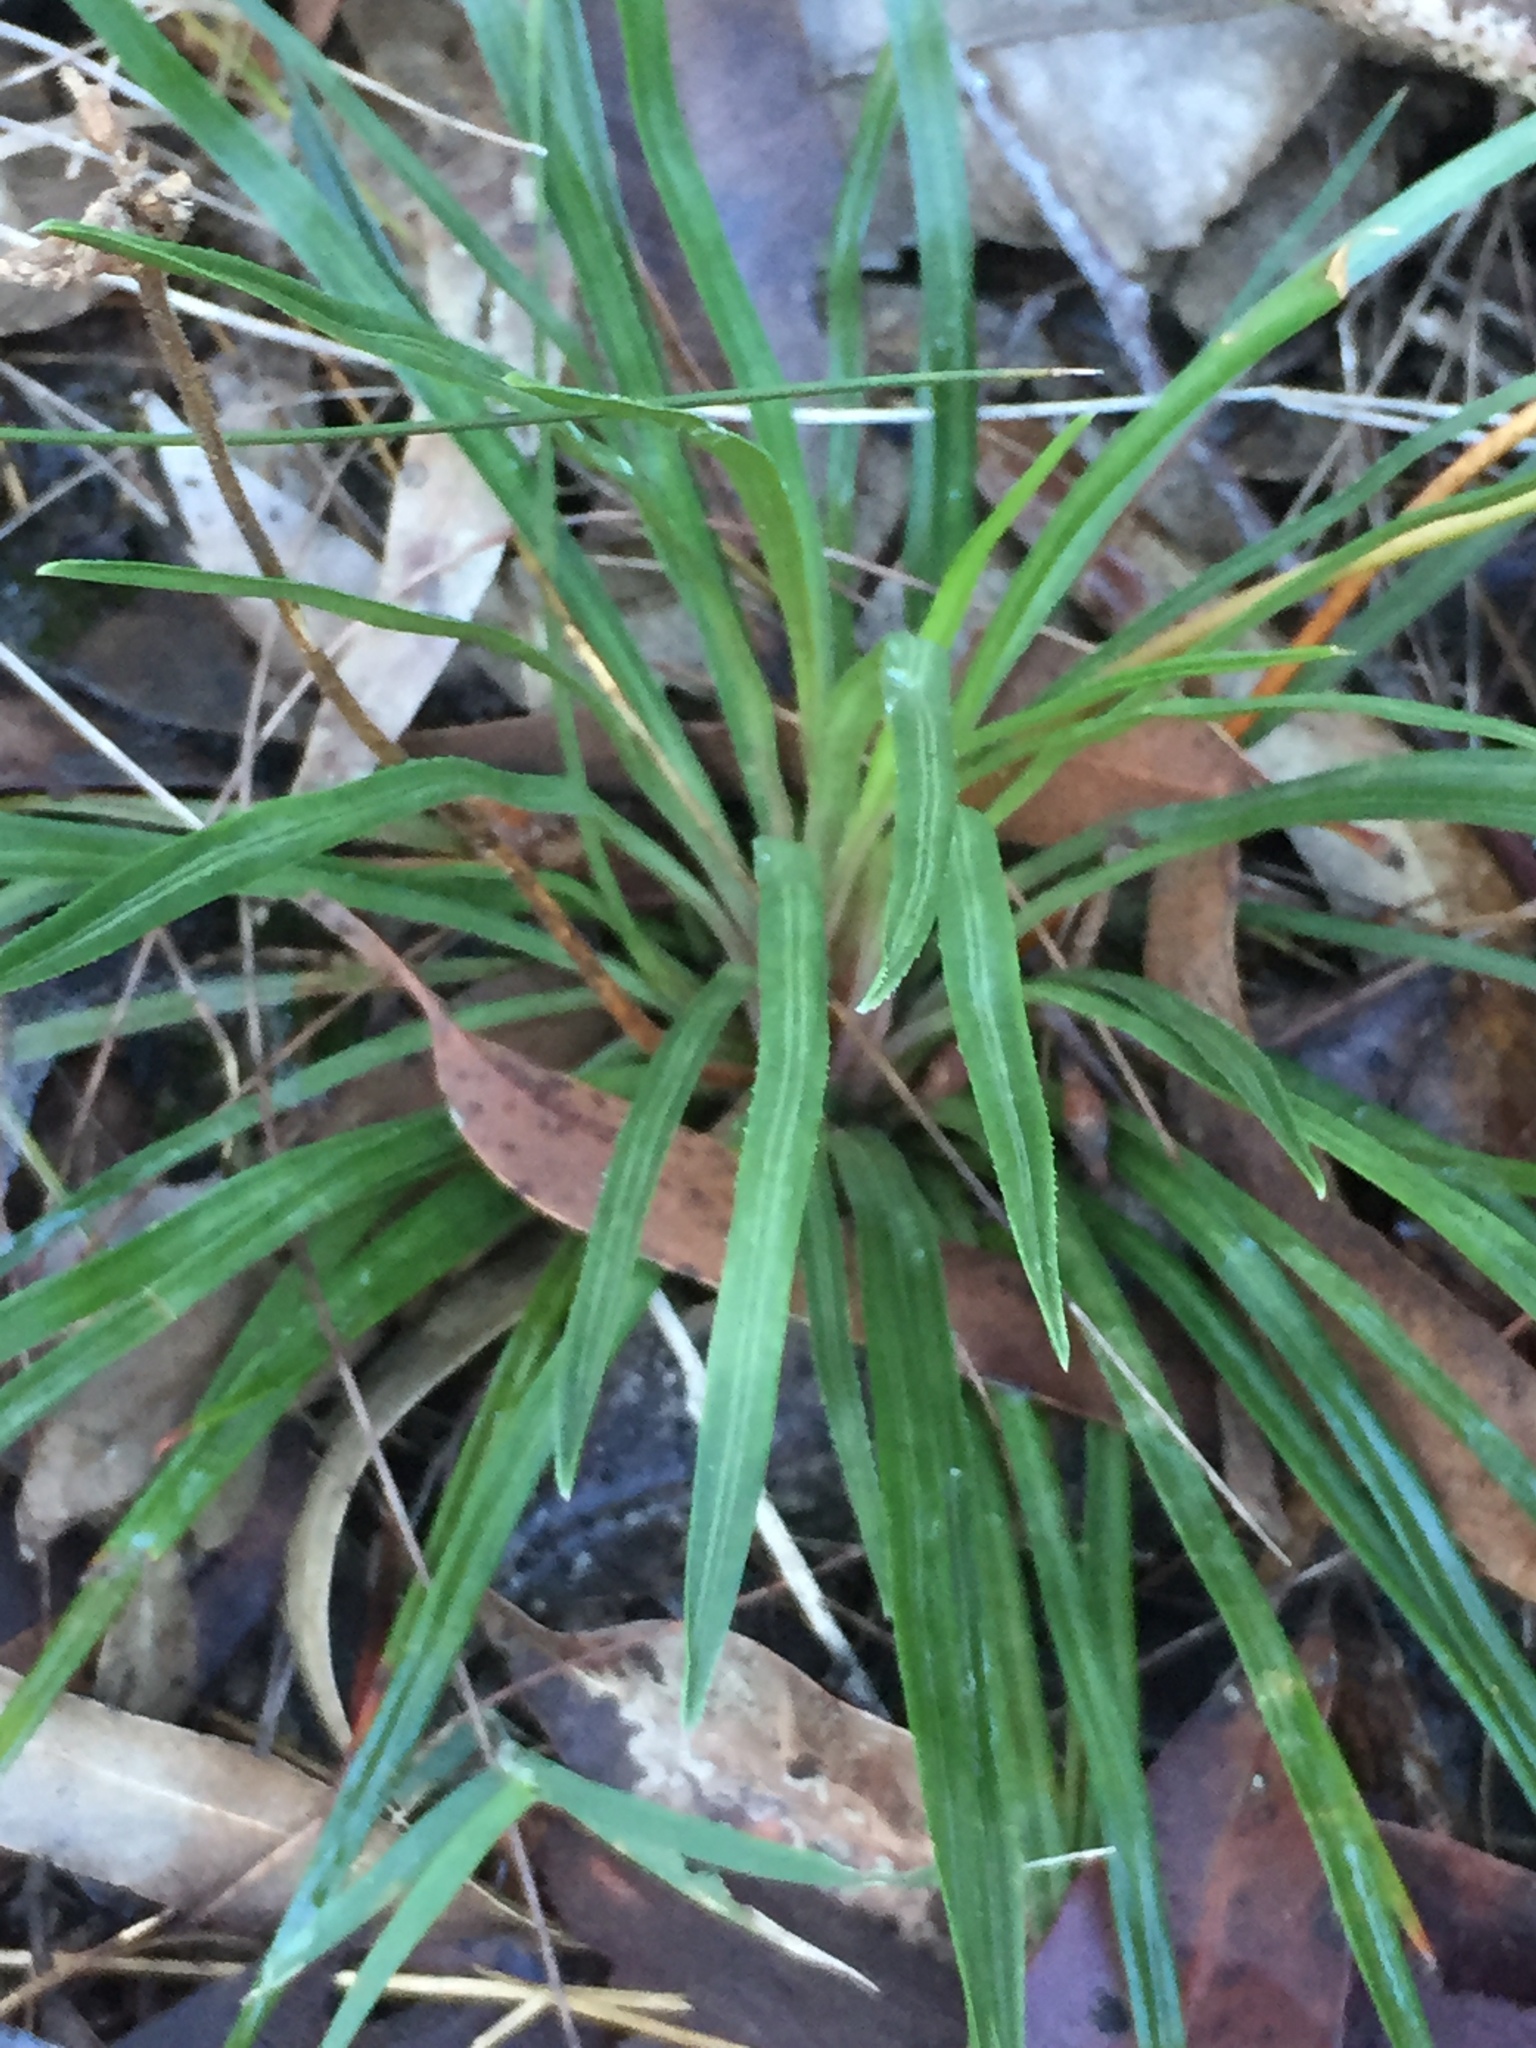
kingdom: Plantae
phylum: Tracheophyta
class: Magnoliopsida
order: Asterales
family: Stylidiaceae
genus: Stylidium
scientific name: Stylidium graminifolium
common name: Grass triggerplant
